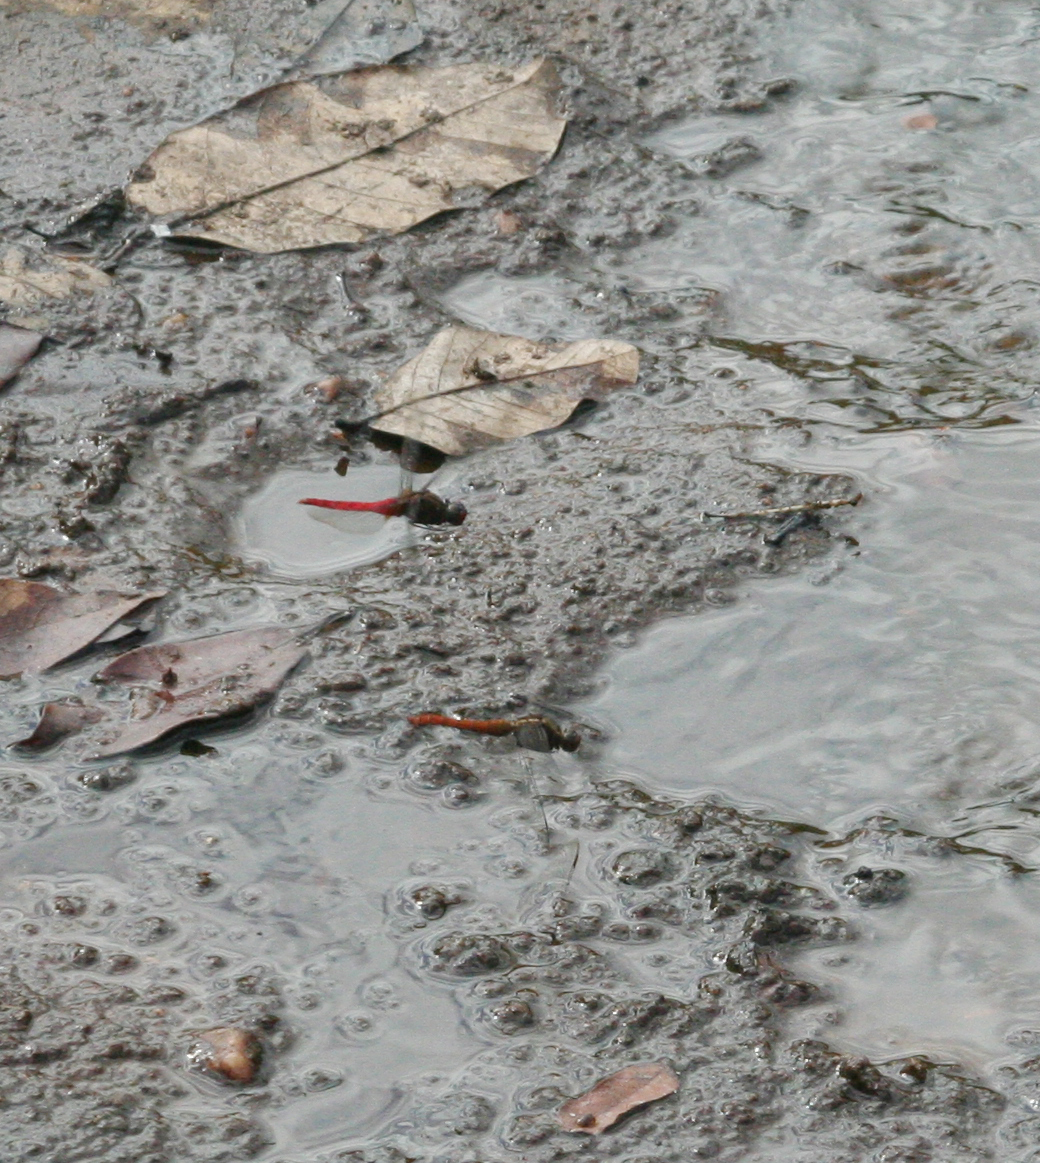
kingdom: Animalia
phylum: Arthropoda
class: Insecta
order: Odonata
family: Libellulidae
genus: Orthetrum
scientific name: Orthetrum chrysis
